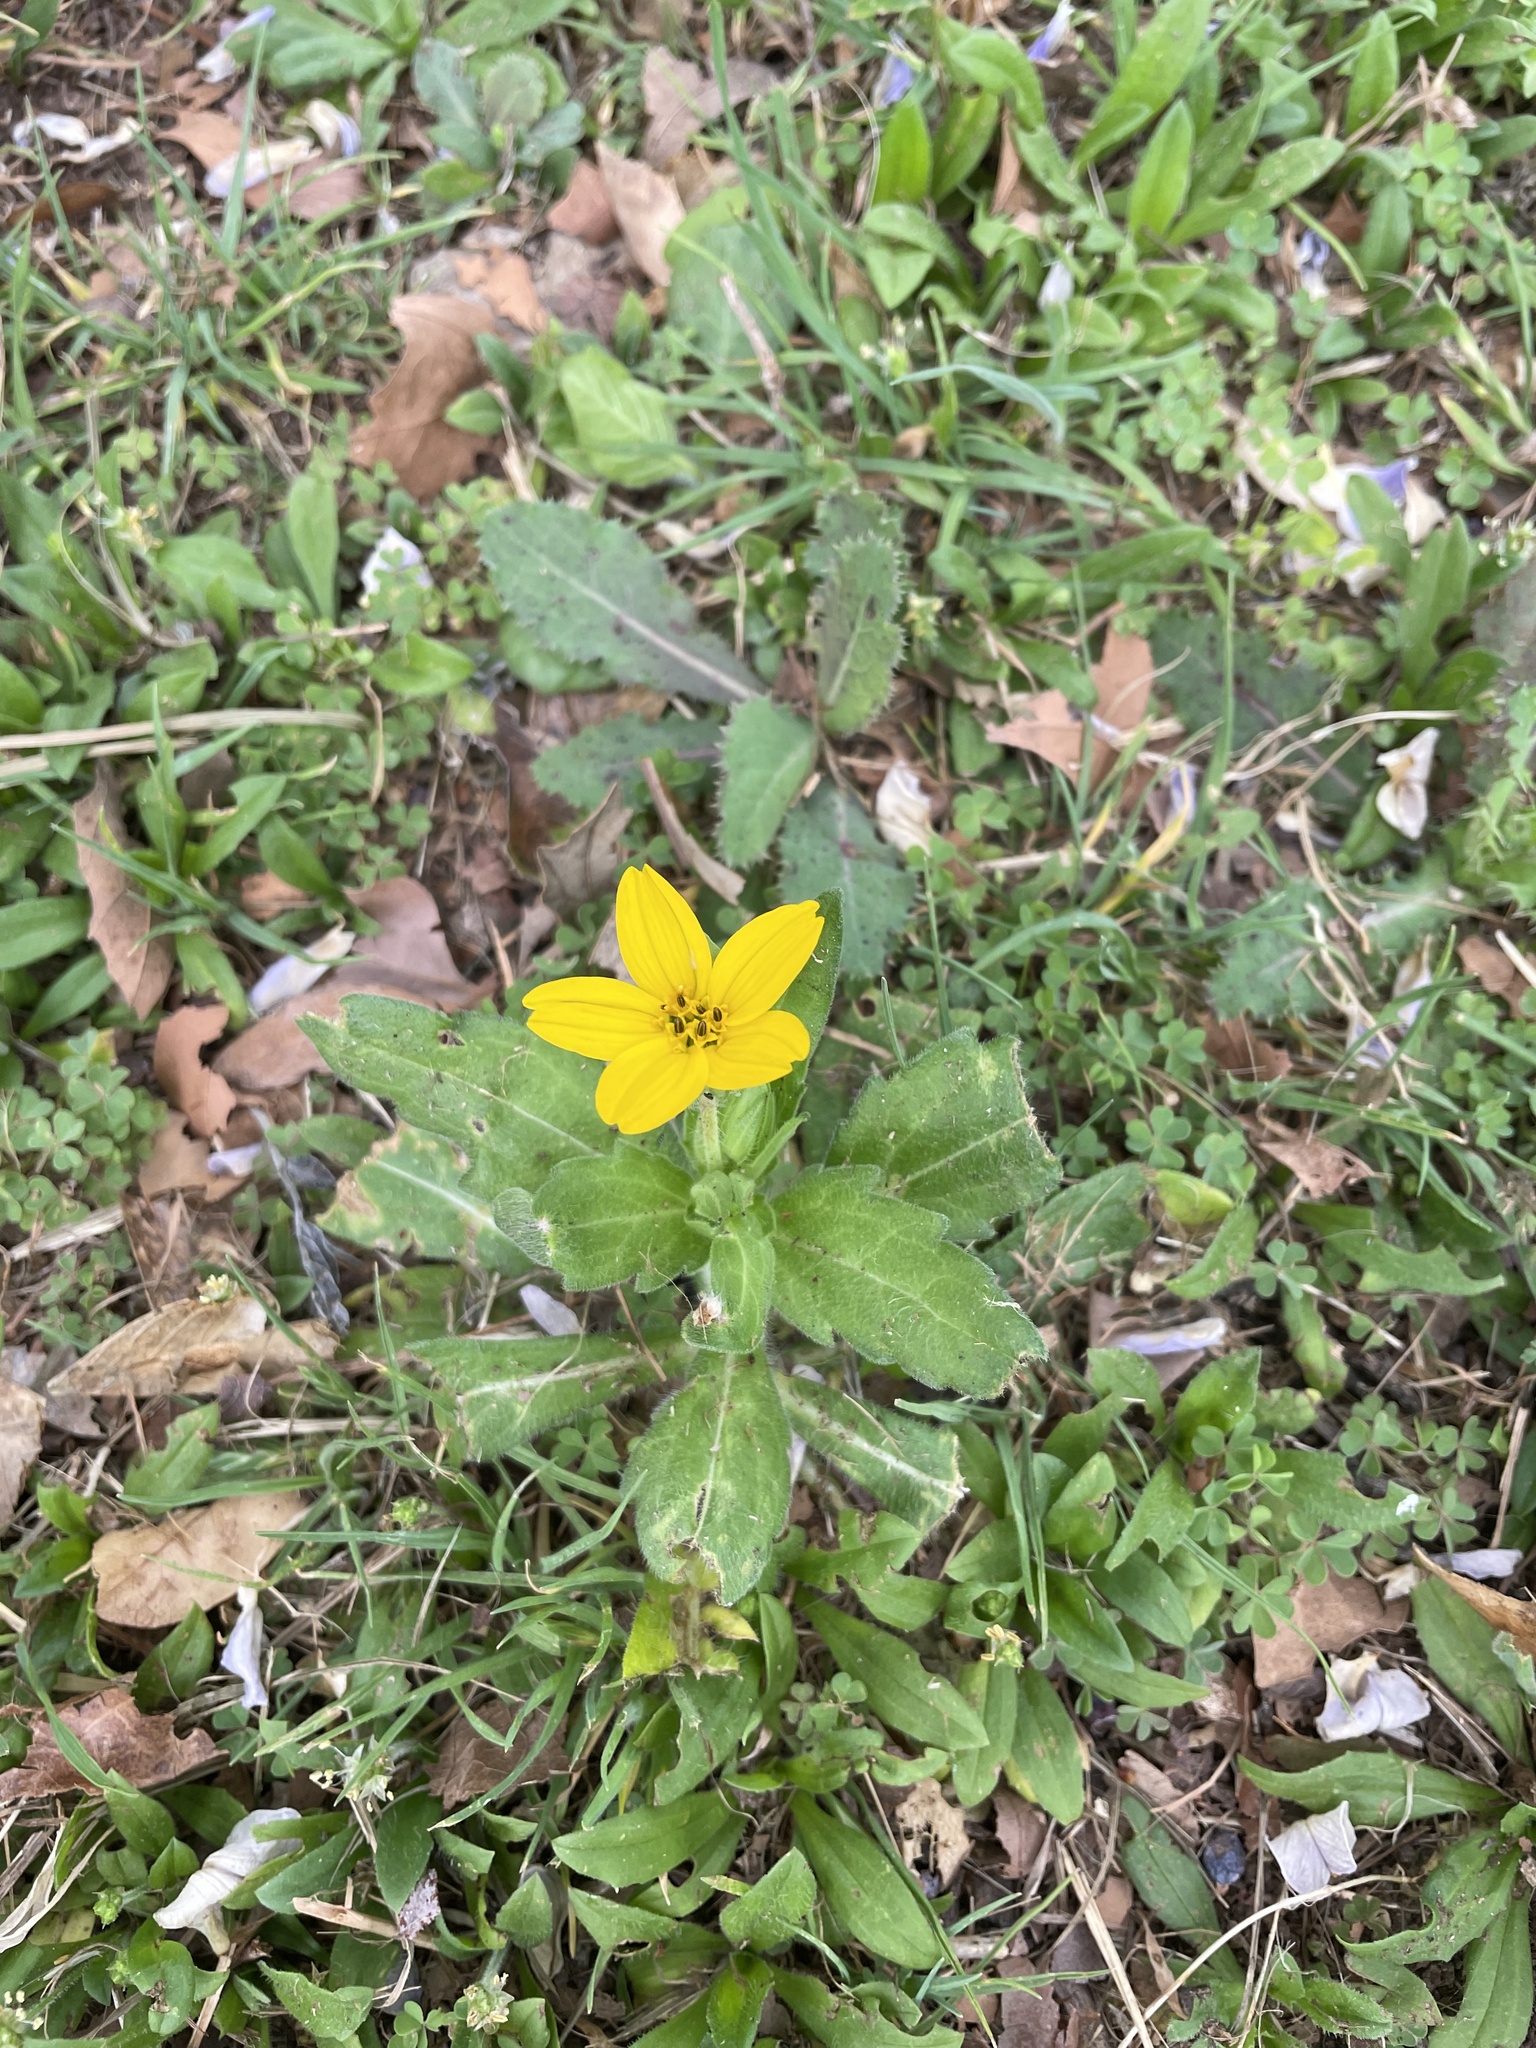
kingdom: Plantae
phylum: Tracheophyta
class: Magnoliopsida
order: Asterales
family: Asteraceae
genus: Lindheimera
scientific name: Lindheimera texana
